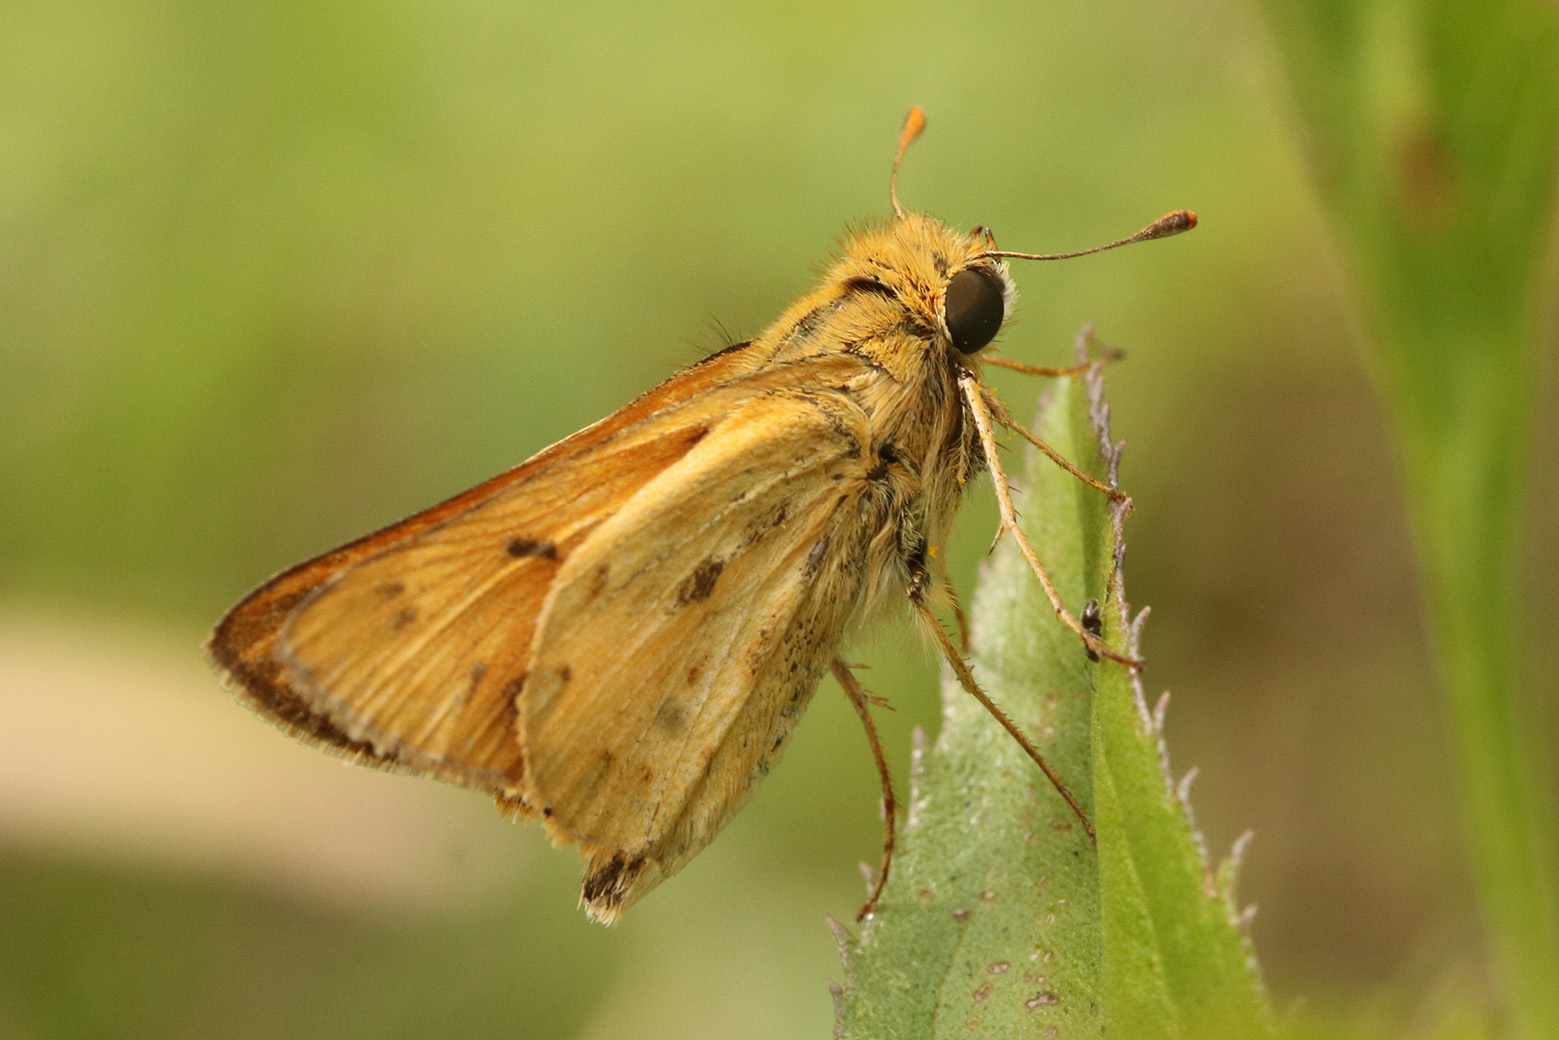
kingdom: Animalia
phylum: Arthropoda
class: Insecta
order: Lepidoptera
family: Hesperiidae
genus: Hylephila
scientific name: Hylephila phyleus
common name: Fiery skipper
